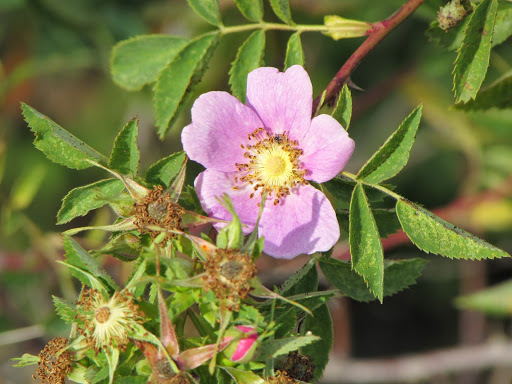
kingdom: Plantae
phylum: Tracheophyta
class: Magnoliopsida
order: Rosales
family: Rosaceae
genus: Rosa
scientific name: Rosa californica
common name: California rose
